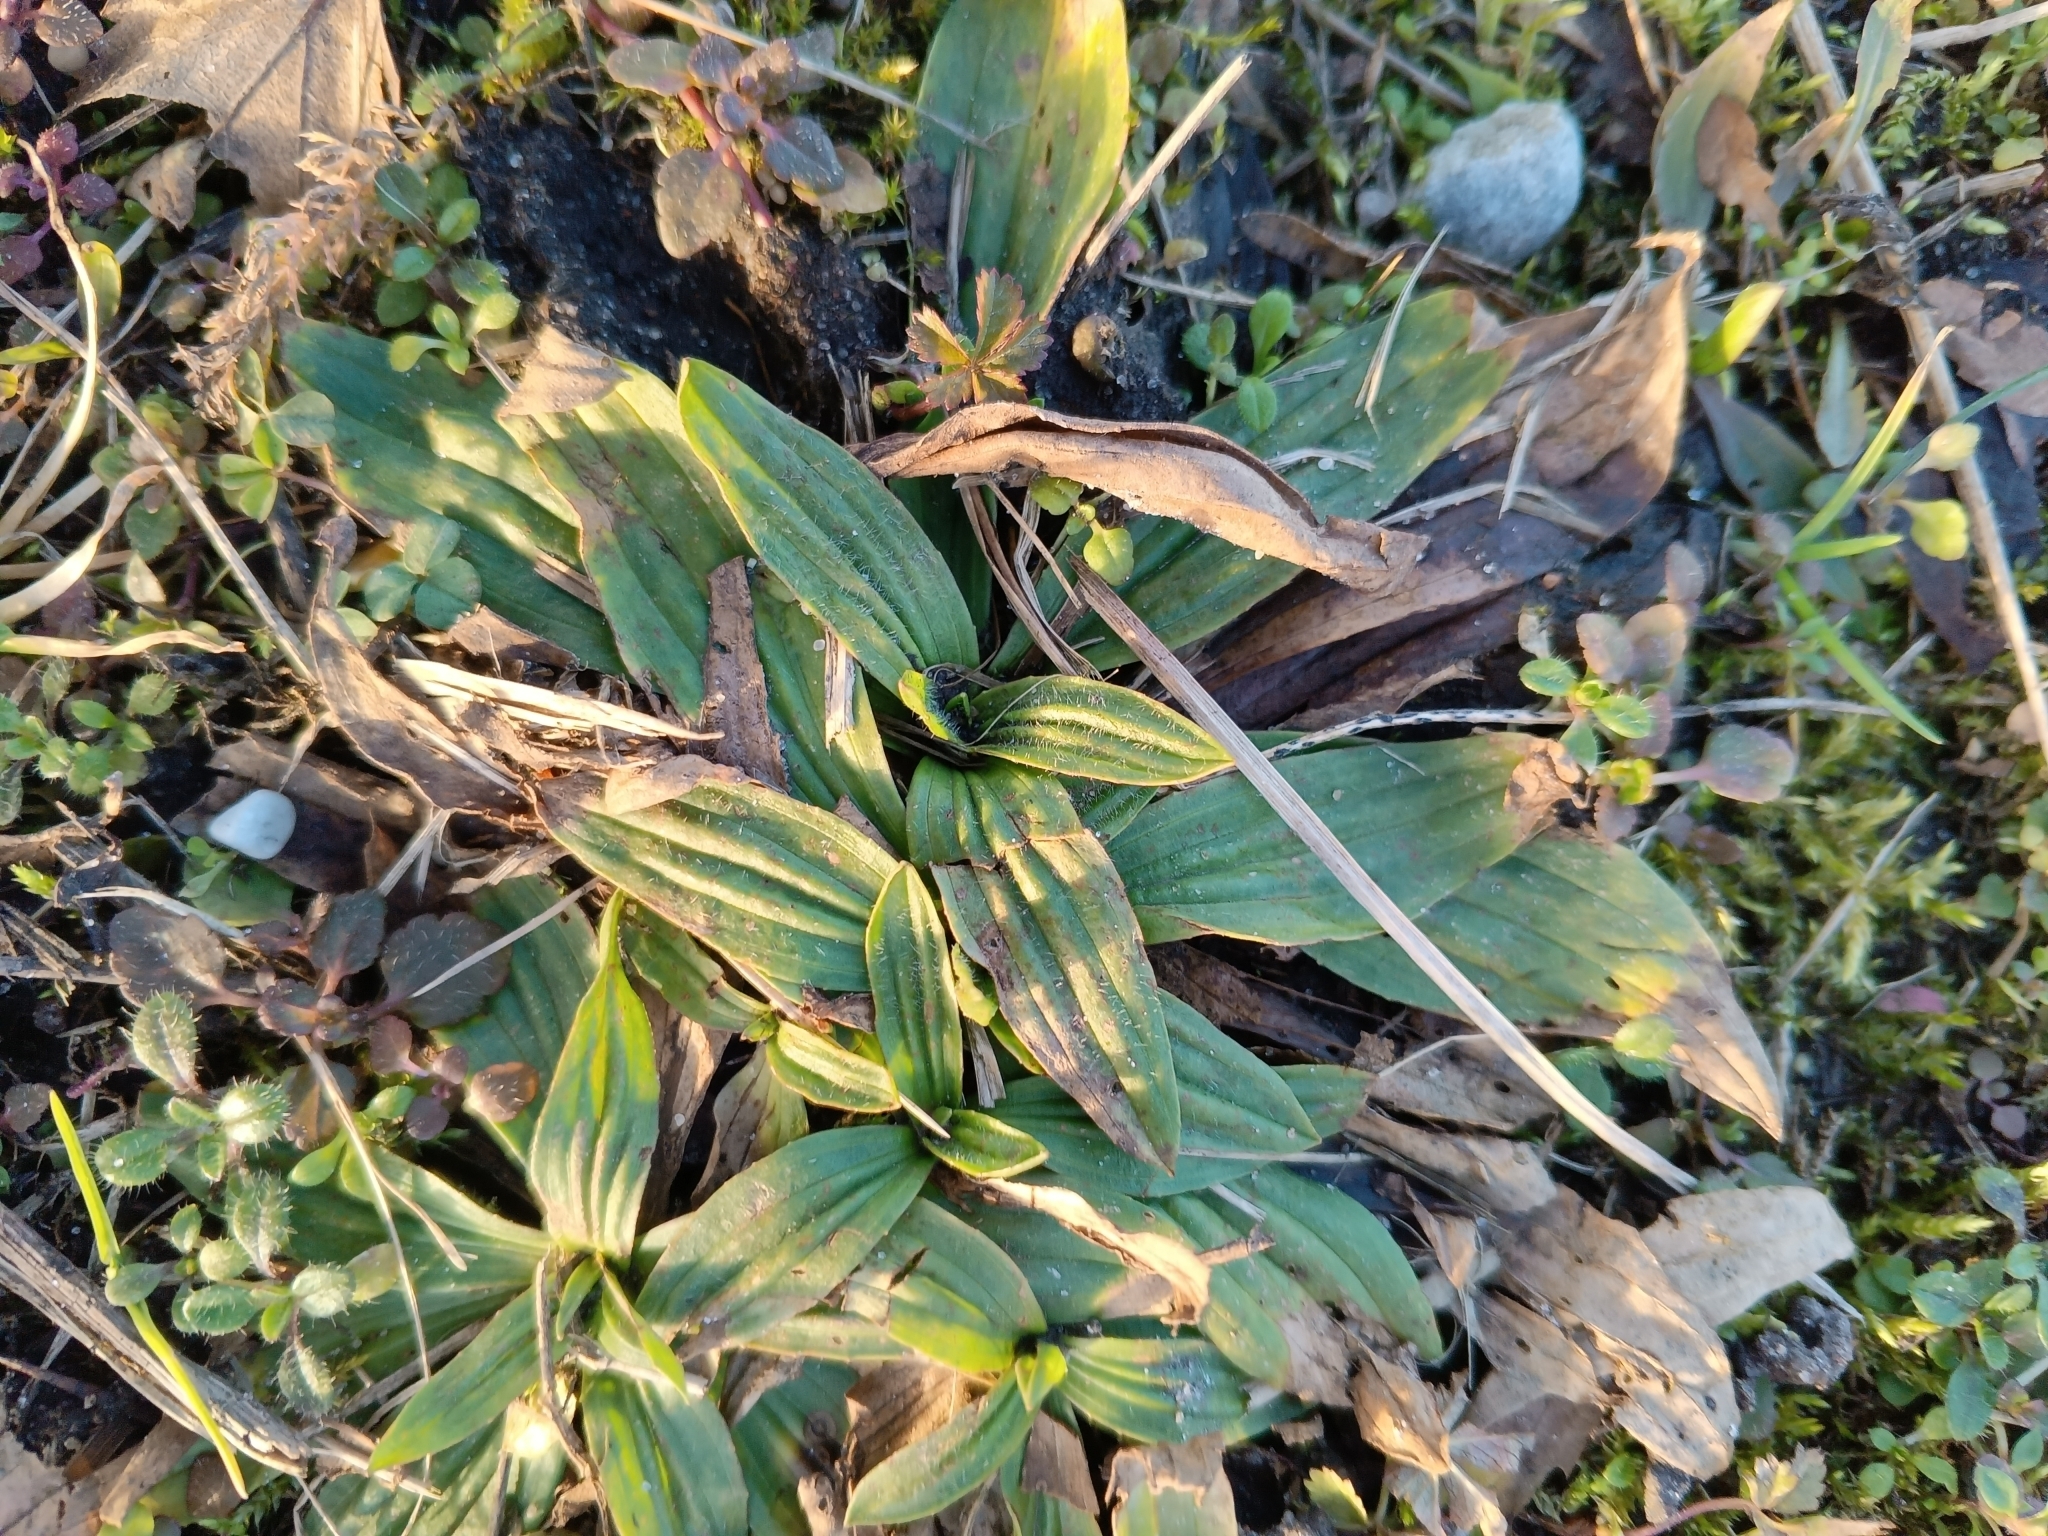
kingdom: Plantae
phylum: Tracheophyta
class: Magnoliopsida
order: Lamiales
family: Plantaginaceae
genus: Plantago
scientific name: Plantago lanceolata
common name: Ribwort plantain
